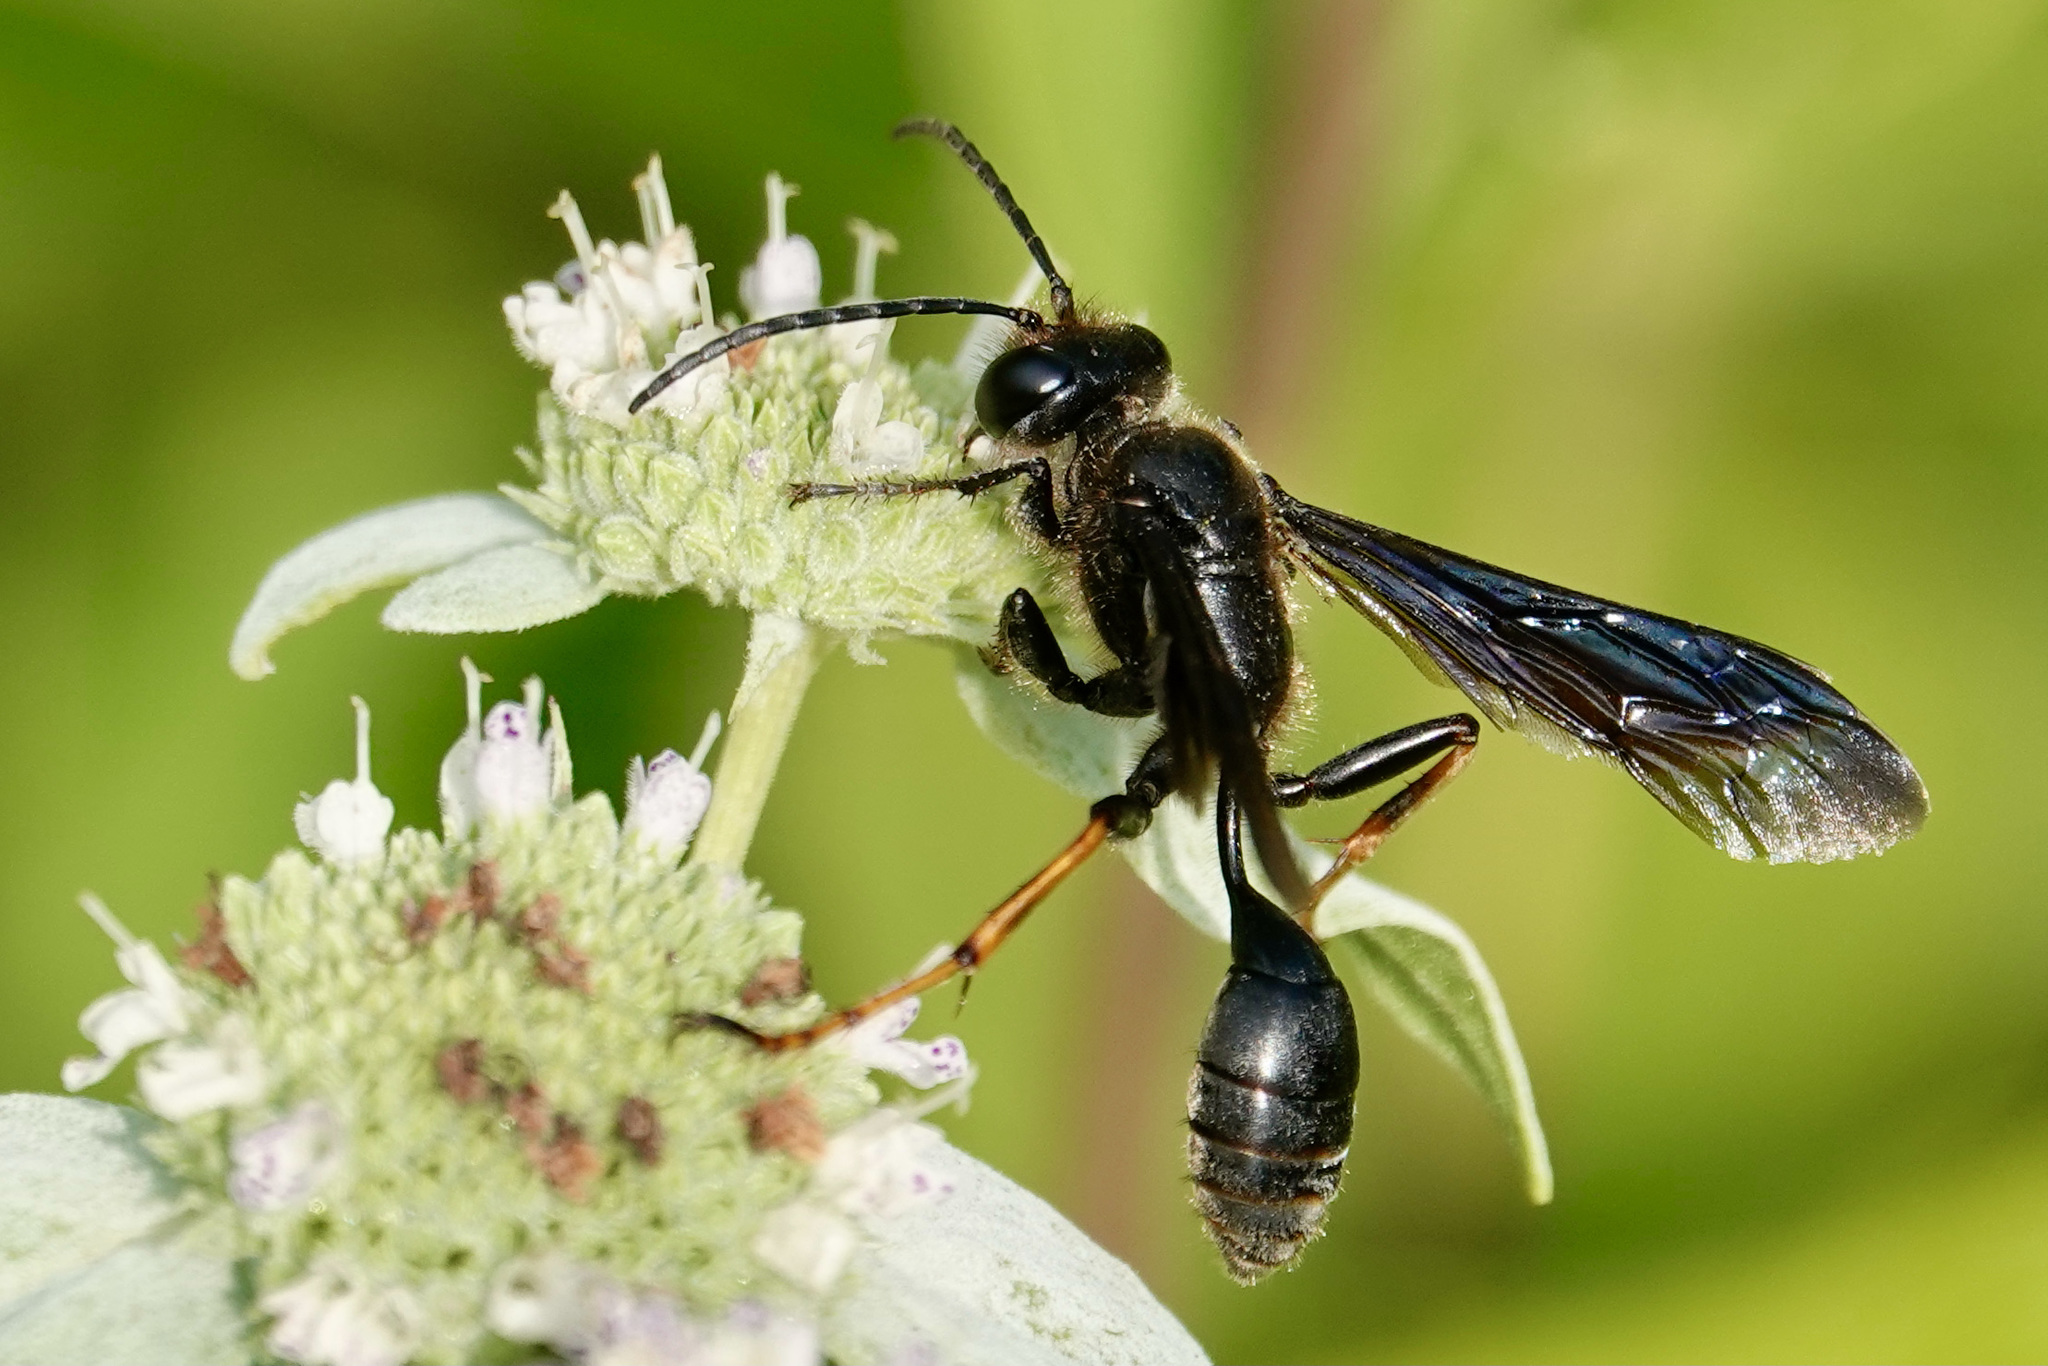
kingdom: Animalia
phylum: Arthropoda
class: Insecta
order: Hymenoptera
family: Sphecidae
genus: Isodontia
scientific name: Isodontia auripes
